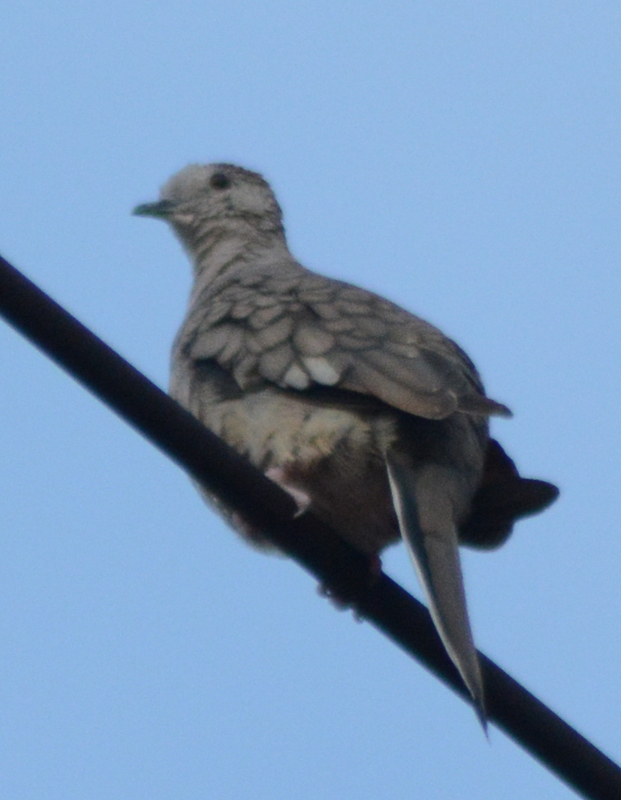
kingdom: Animalia
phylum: Chordata
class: Aves
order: Columbiformes
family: Columbidae
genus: Columbina
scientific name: Columbina inca
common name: Inca dove
